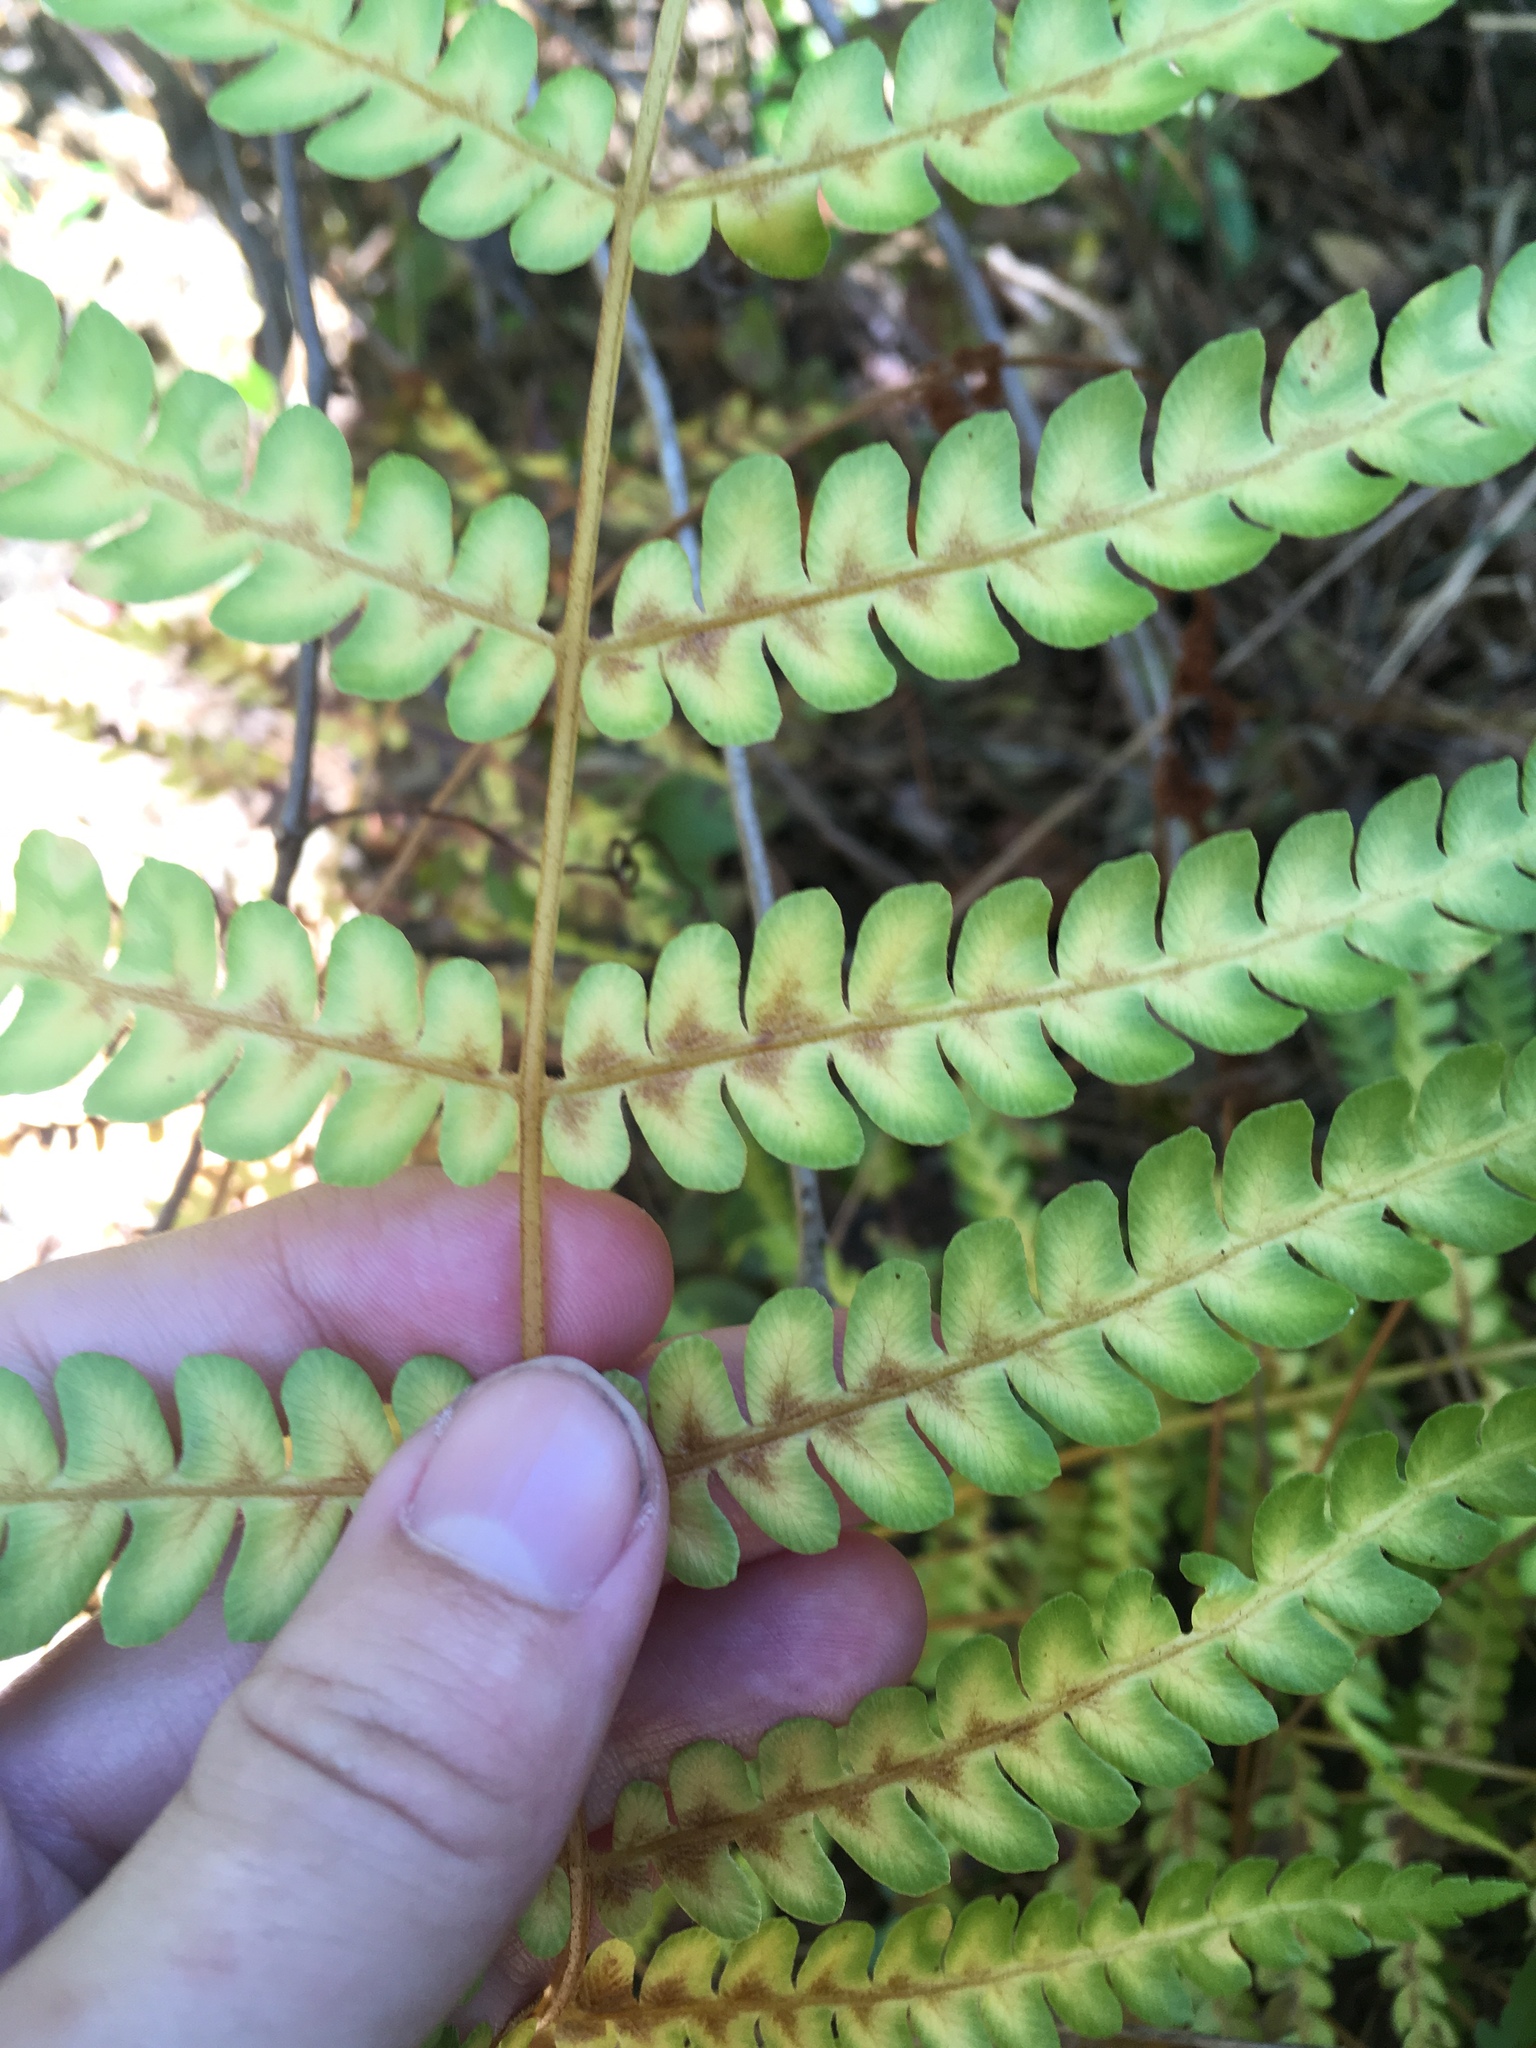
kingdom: Plantae
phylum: Tracheophyta
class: Polypodiopsida
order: Osmundales
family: Osmundaceae
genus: Osmundastrum
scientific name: Osmundastrum cinnamomeum
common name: Cinnamon fern
